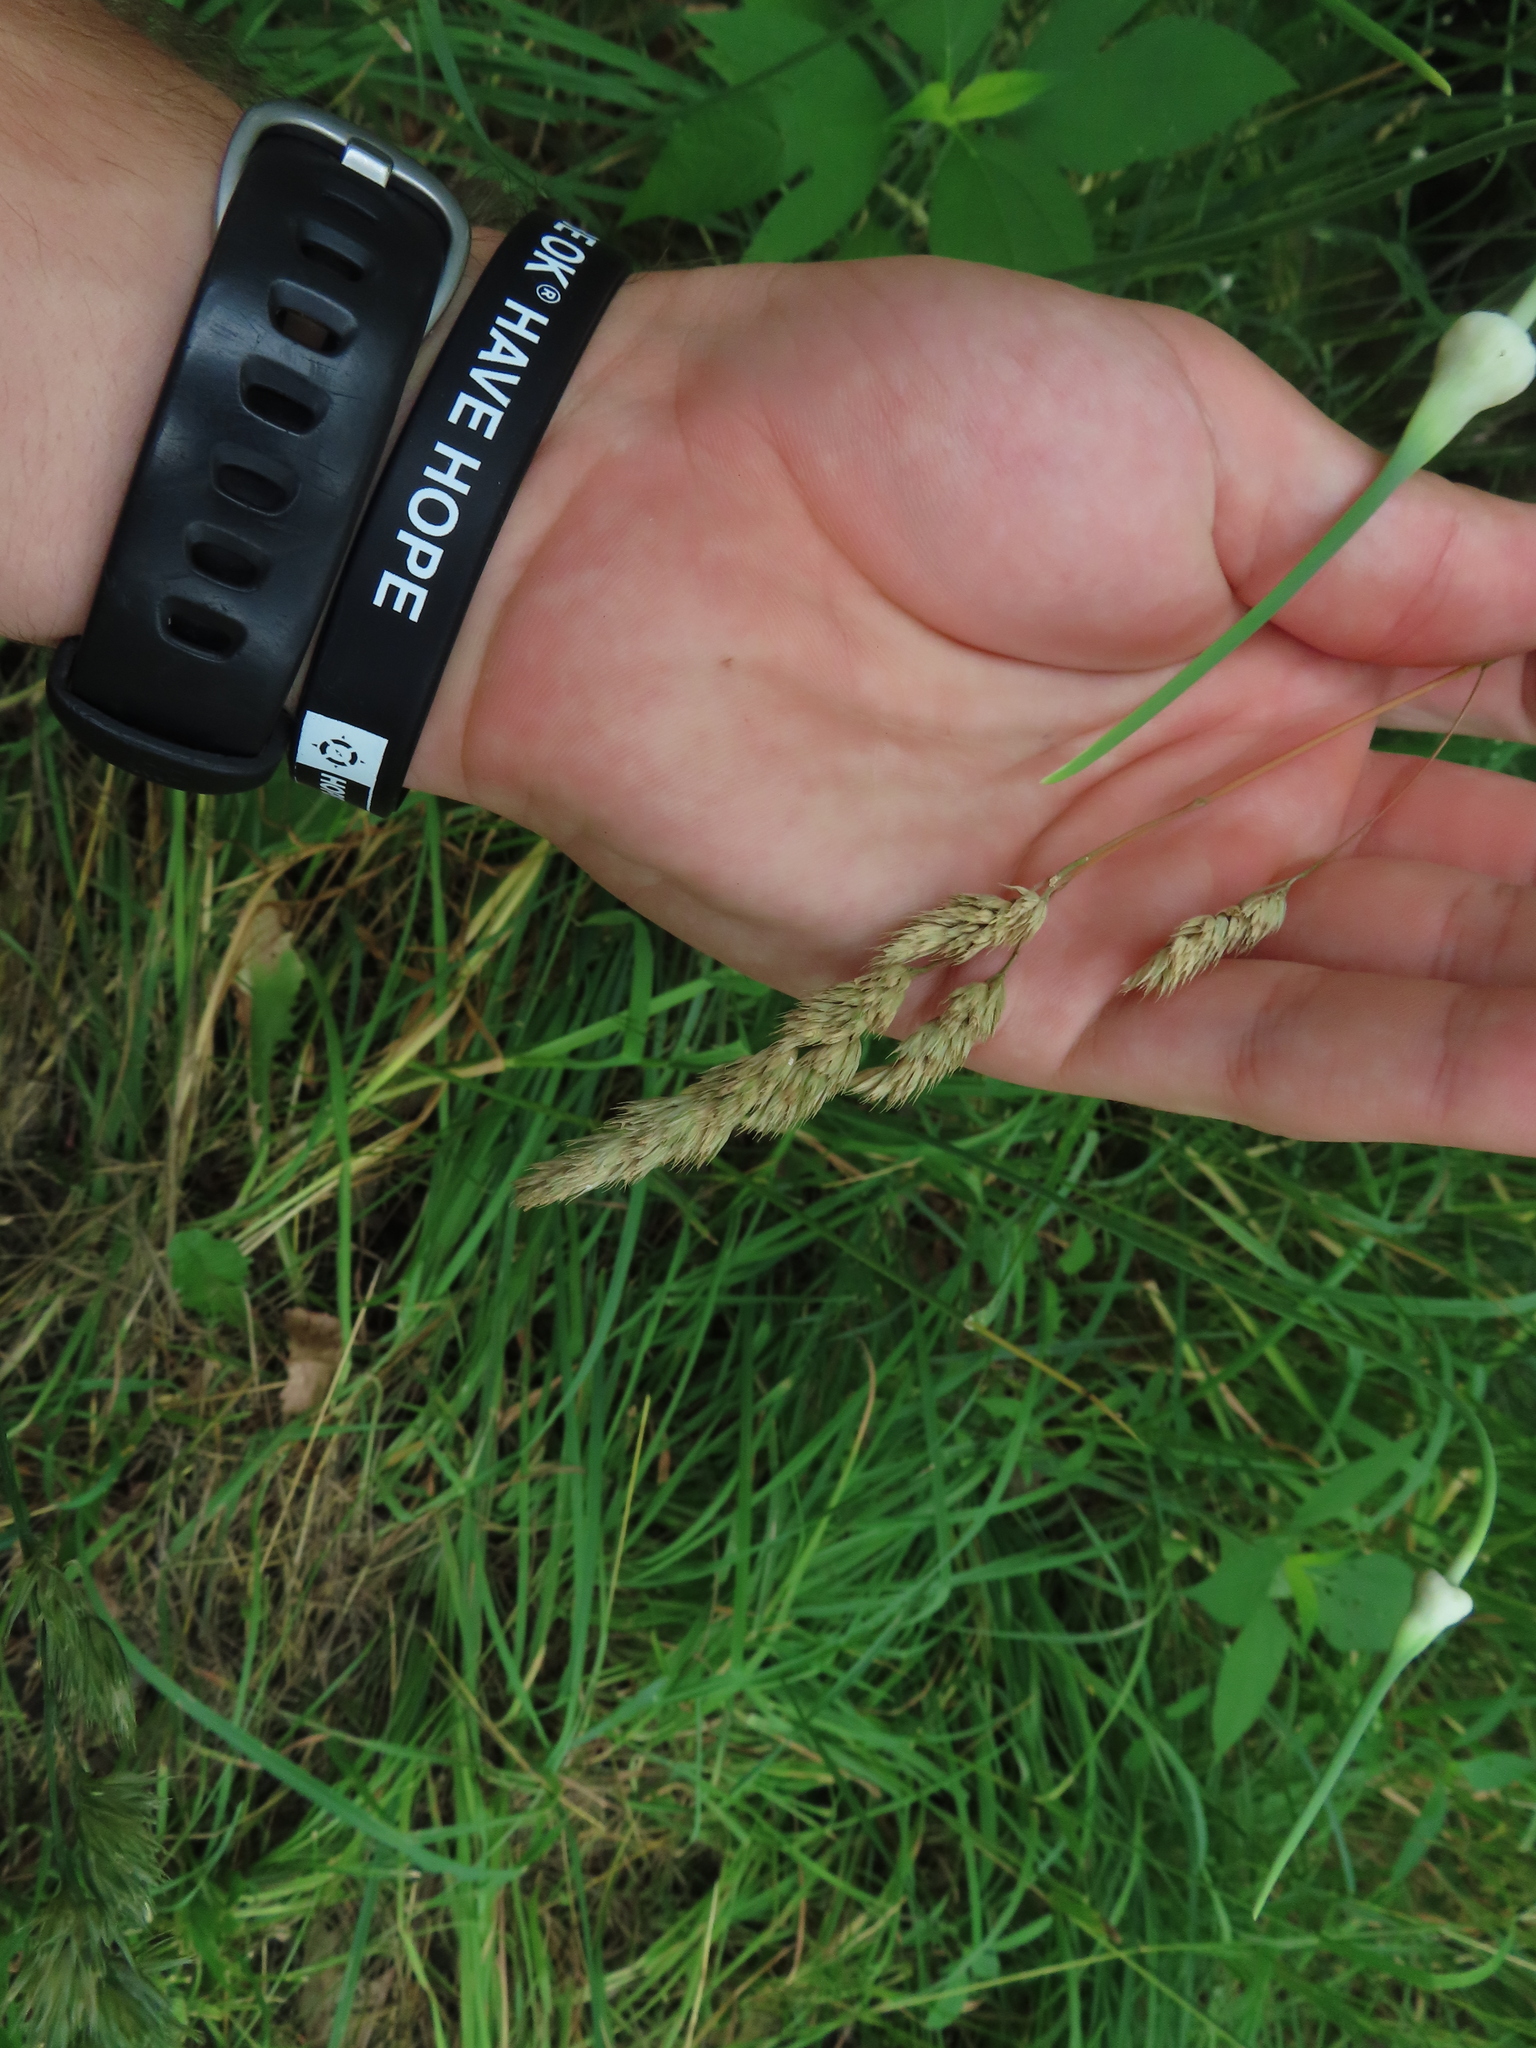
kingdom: Plantae
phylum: Tracheophyta
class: Liliopsida
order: Poales
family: Poaceae
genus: Dactylis
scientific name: Dactylis glomerata
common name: Orchardgrass
